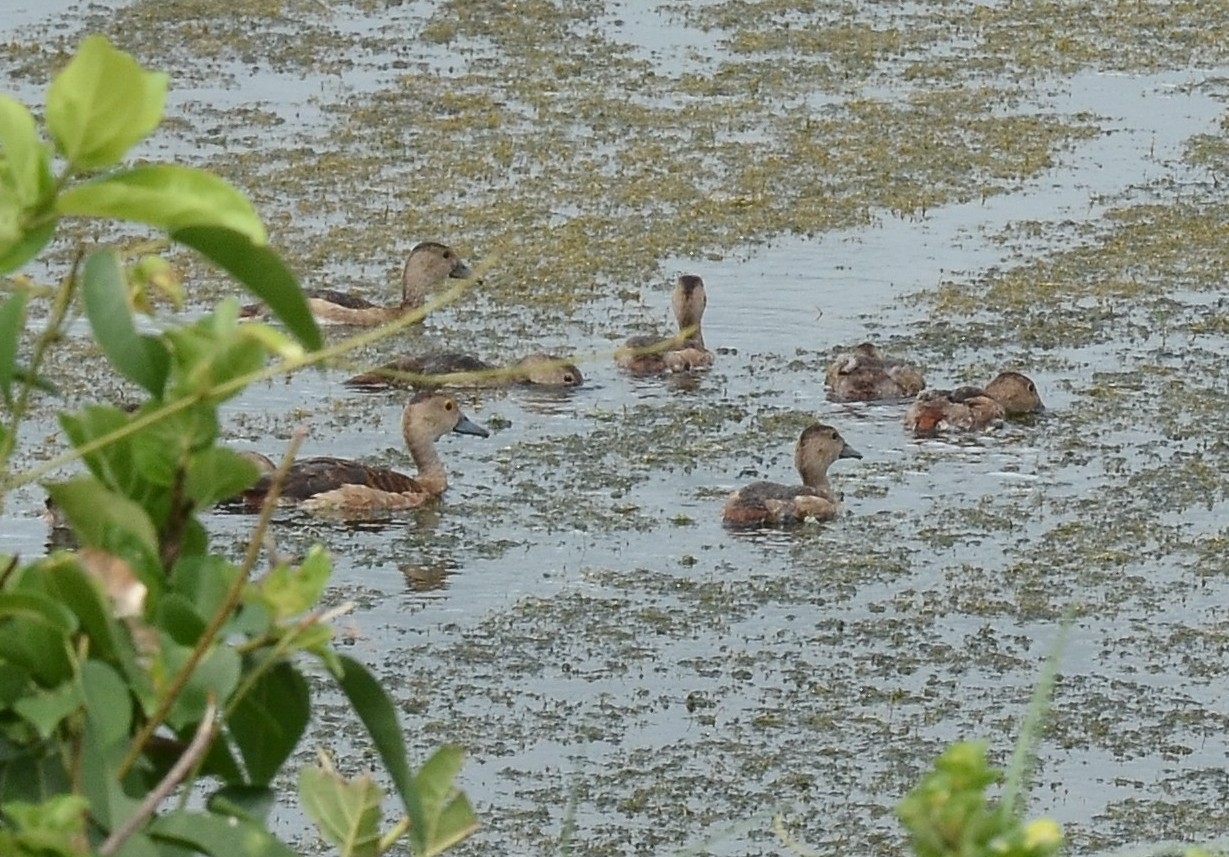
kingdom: Animalia
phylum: Chordata
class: Aves
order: Anseriformes
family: Anatidae
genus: Dendrocygna
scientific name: Dendrocygna javanica
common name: Lesser whistling-duck
